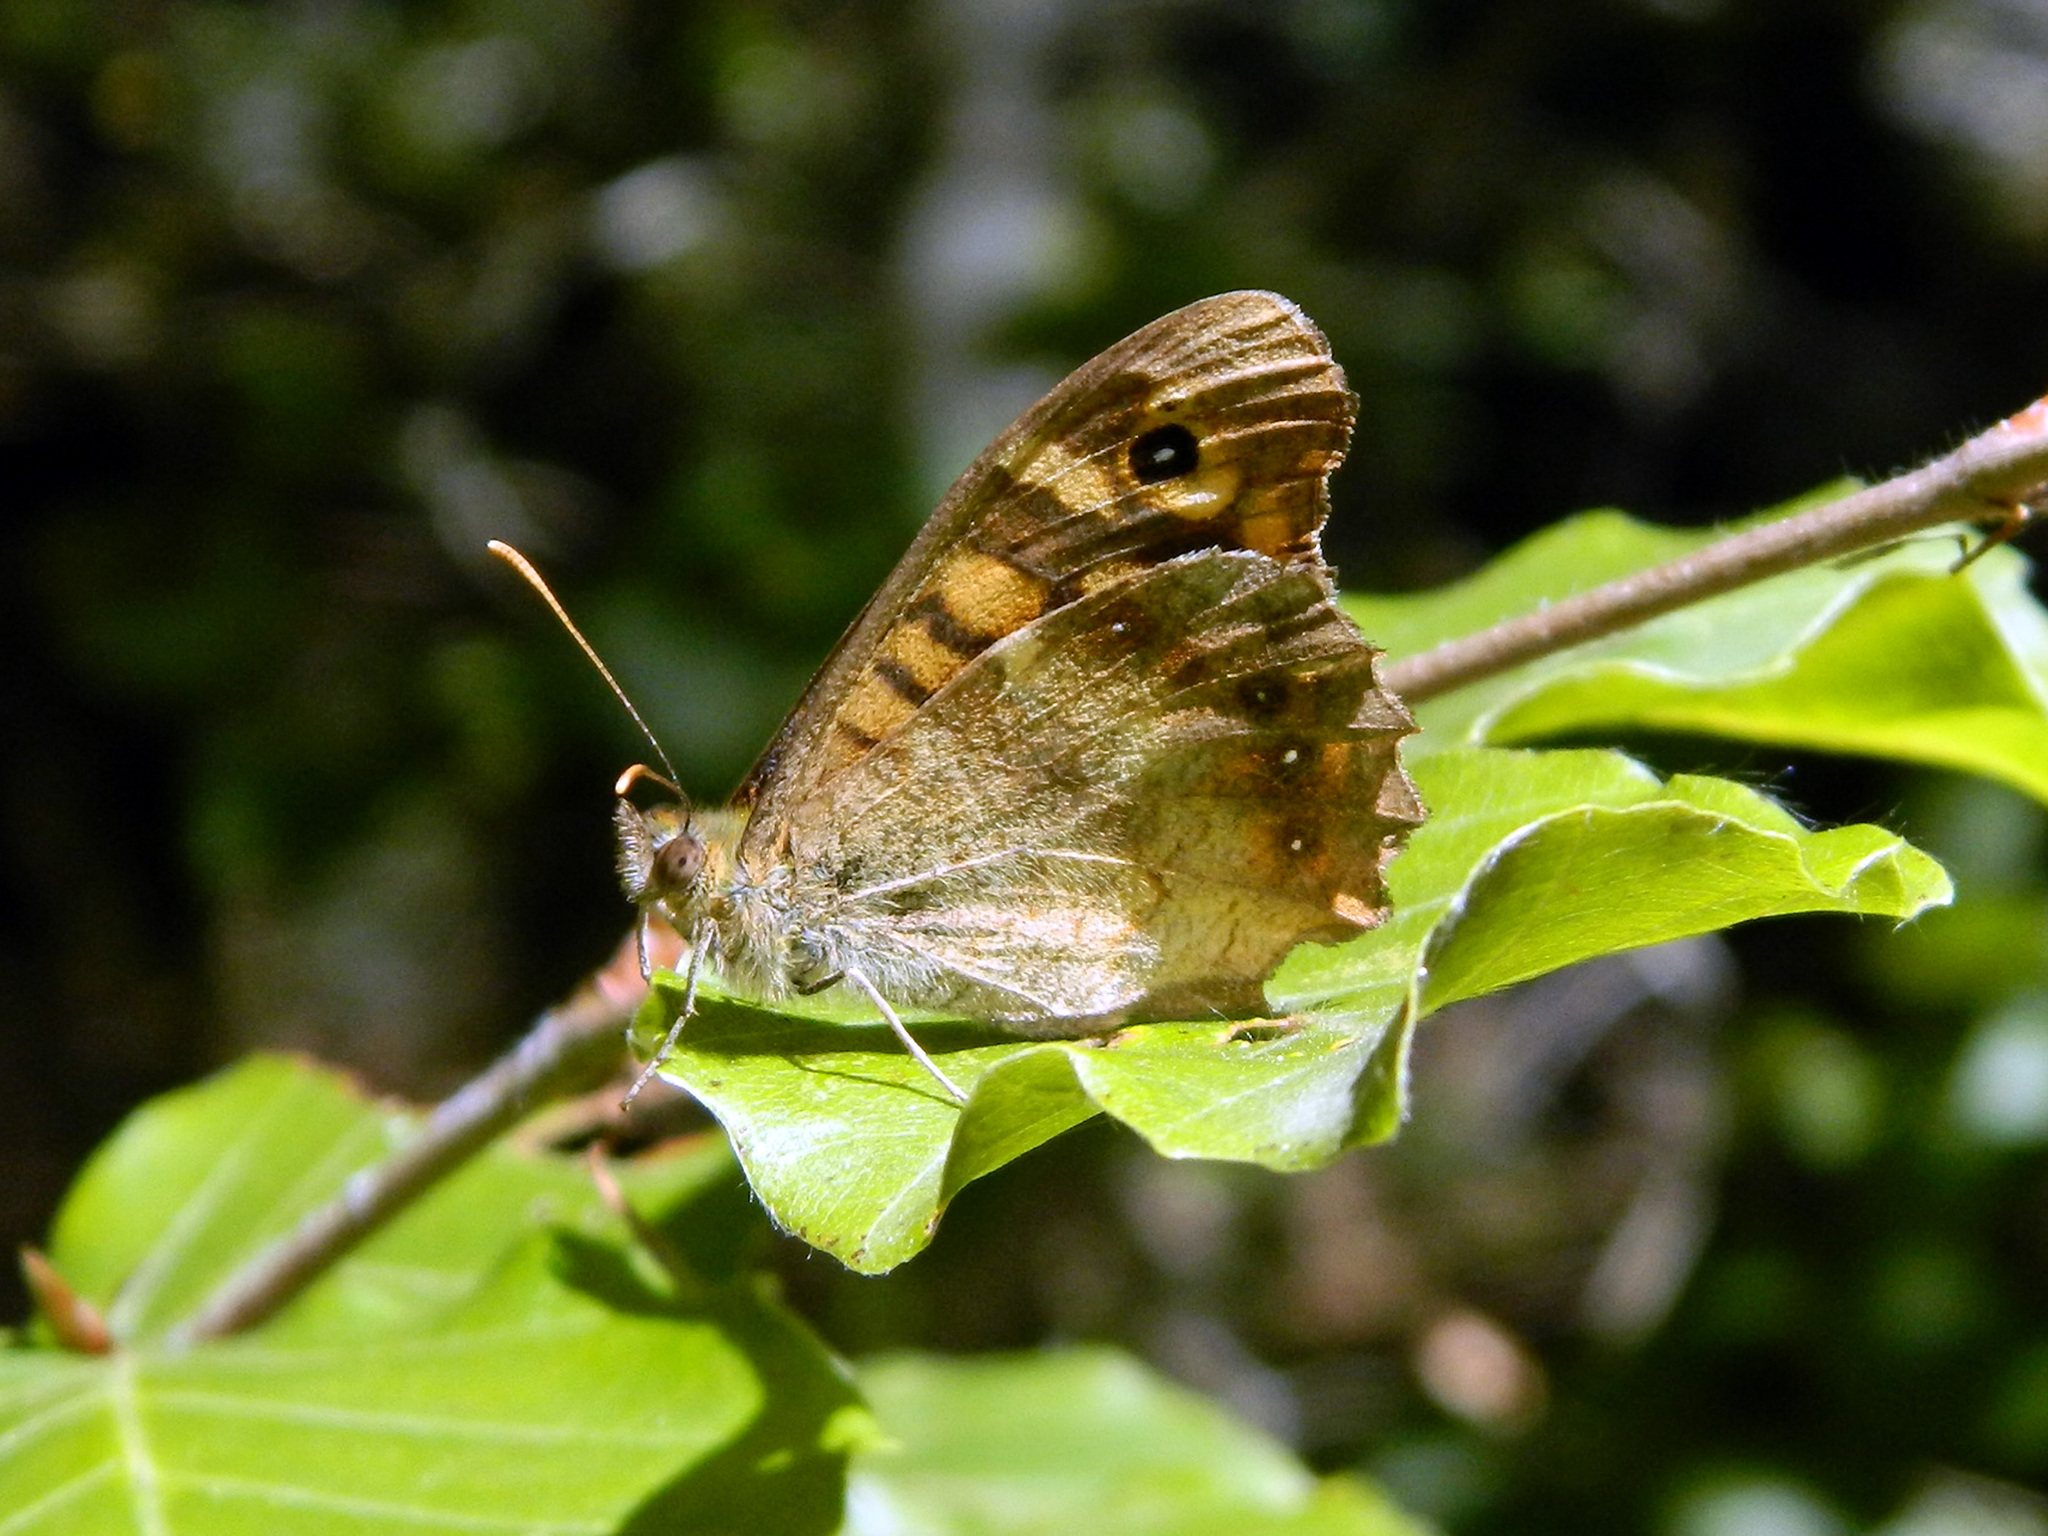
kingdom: Animalia
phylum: Arthropoda
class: Insecta
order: Lepidoptera
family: Nymphalidae
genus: Pararge
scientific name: Pararge aegeria
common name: Speckled wood
